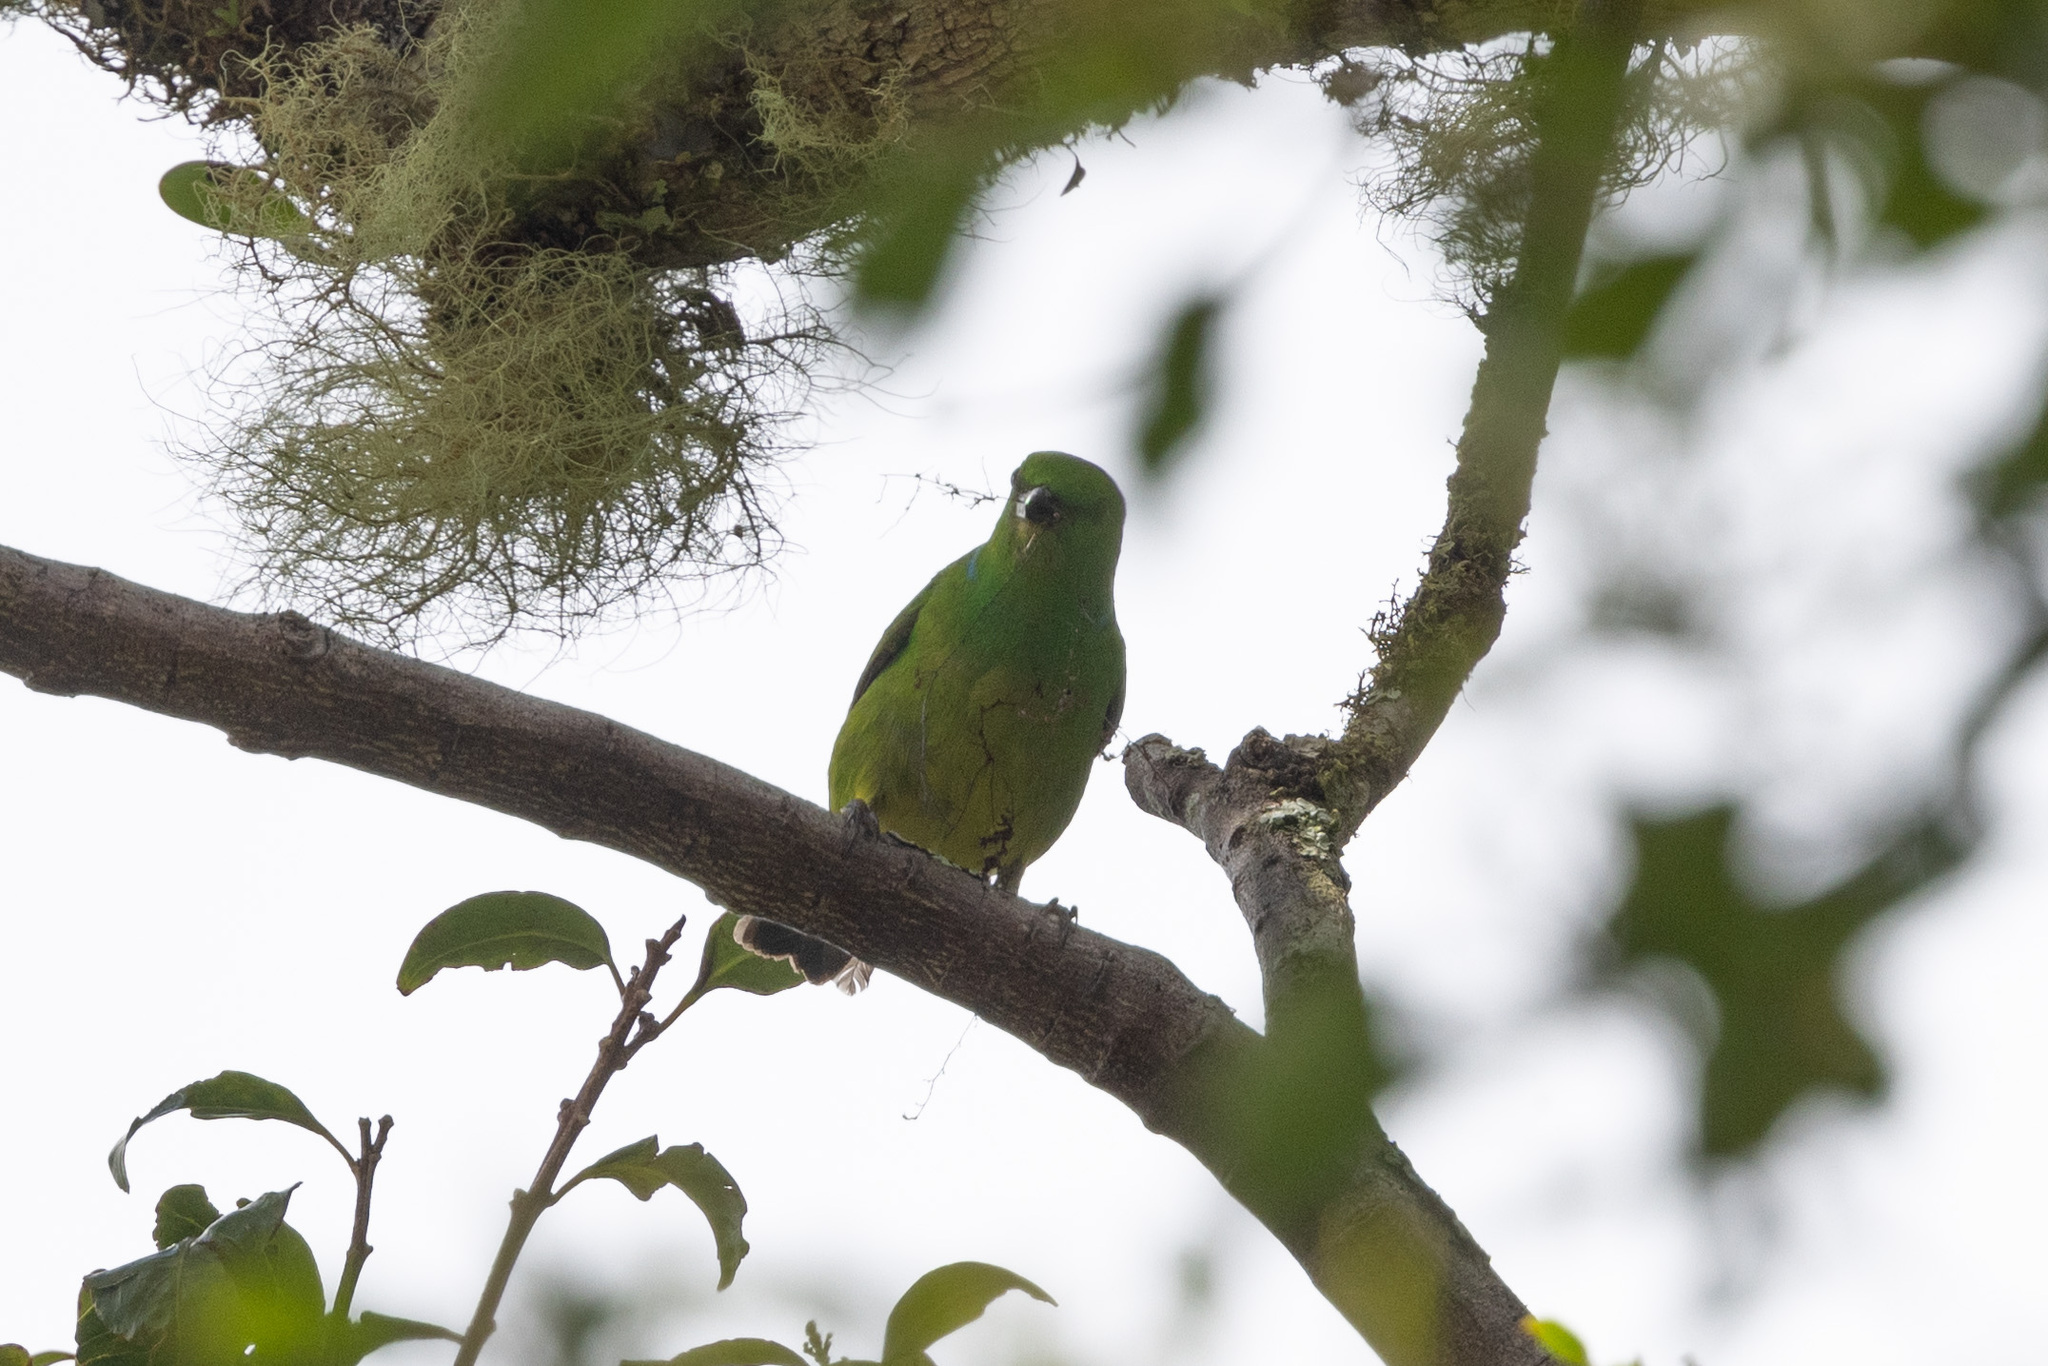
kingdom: Animalia
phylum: Chordata
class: Aves
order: Passeriformes
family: Fringillidae
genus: Chlorophonia
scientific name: Chlorophonia callophrys
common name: Golden-browed chlorophonia
